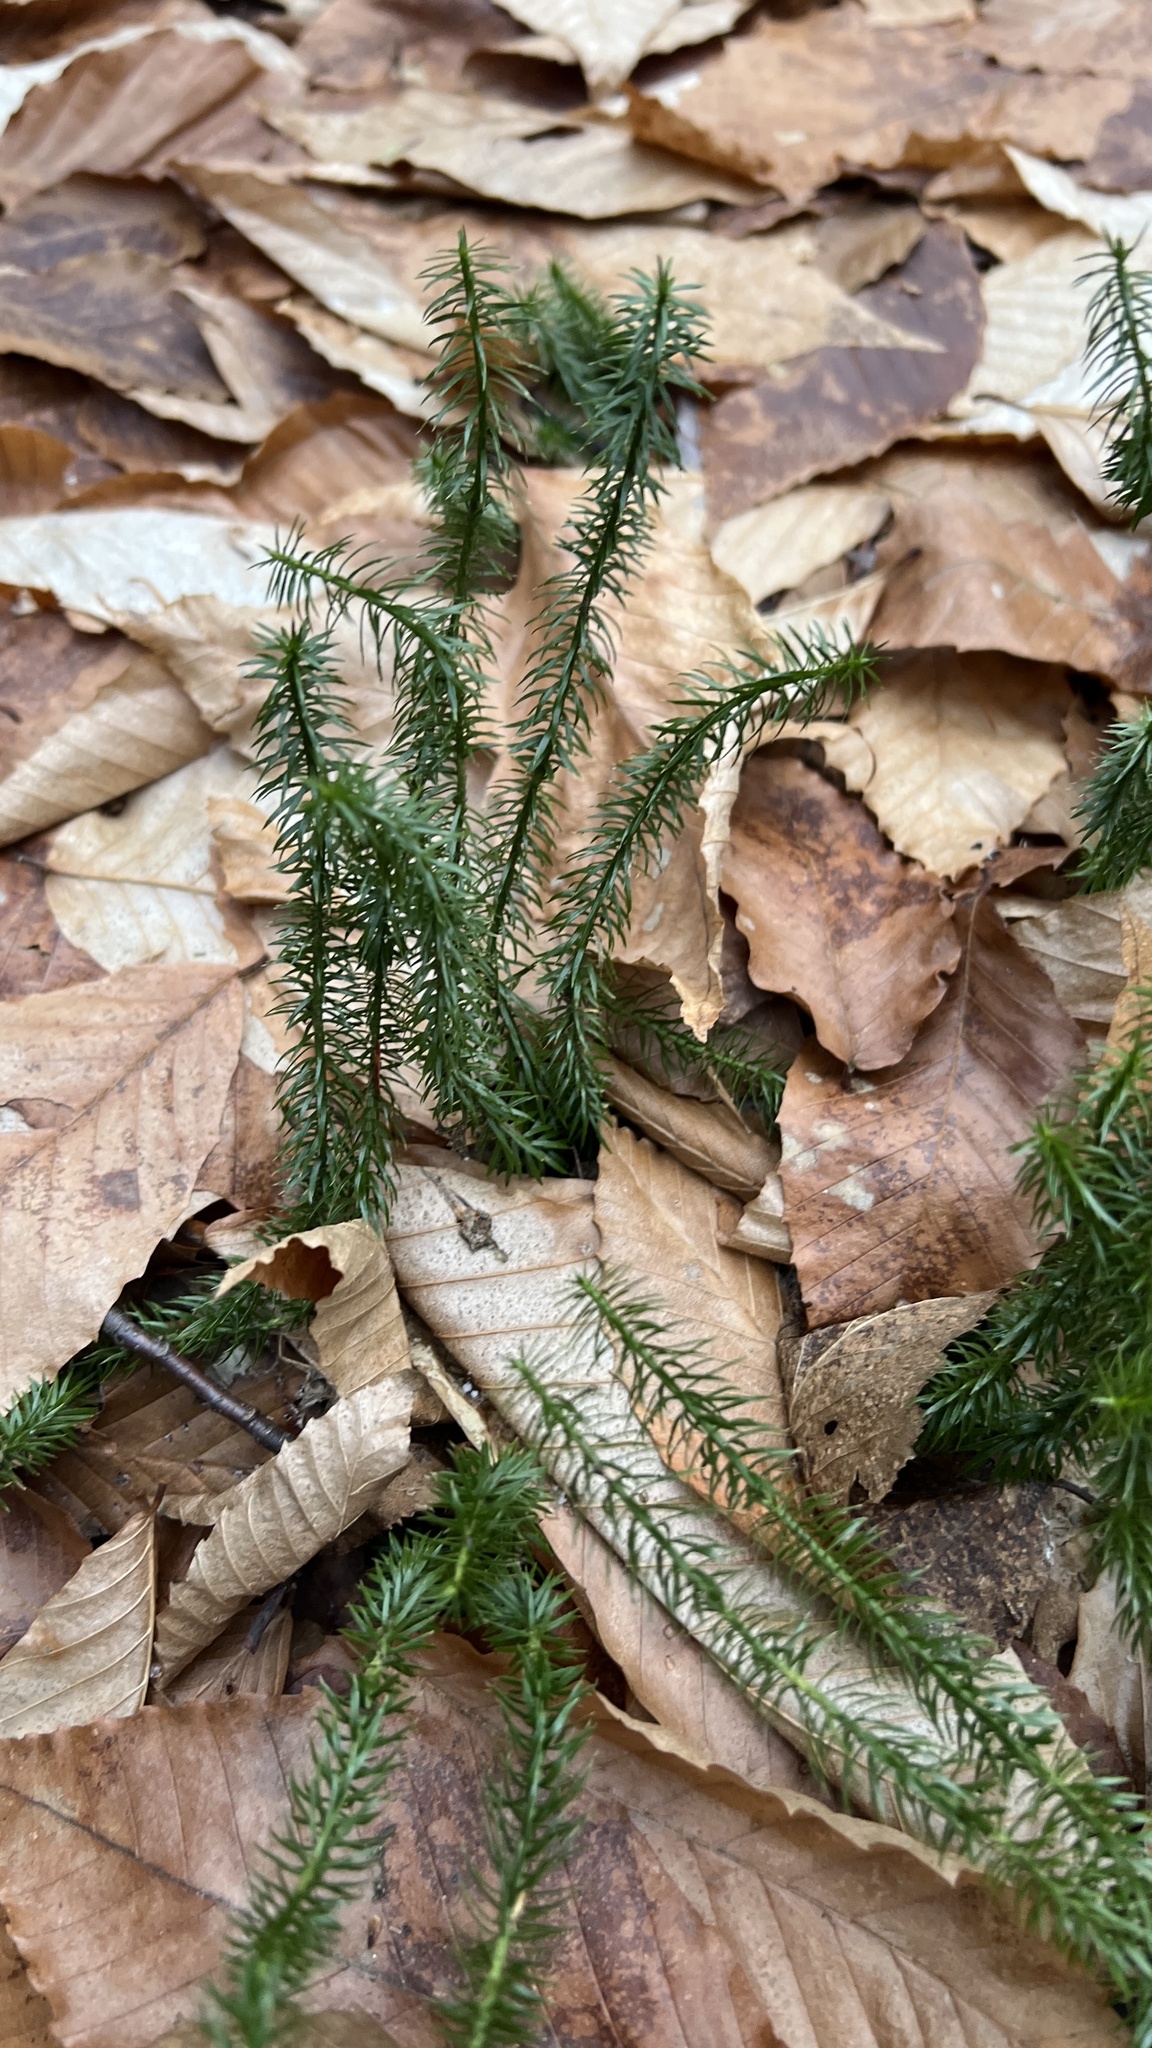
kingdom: Plantae
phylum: Tracheophyta
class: Lycopodiopsida
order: Lycopodiales
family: Lycopodiaceae
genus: Spinulum
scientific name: Spinulum annotinum
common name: Interrupted club-moss
